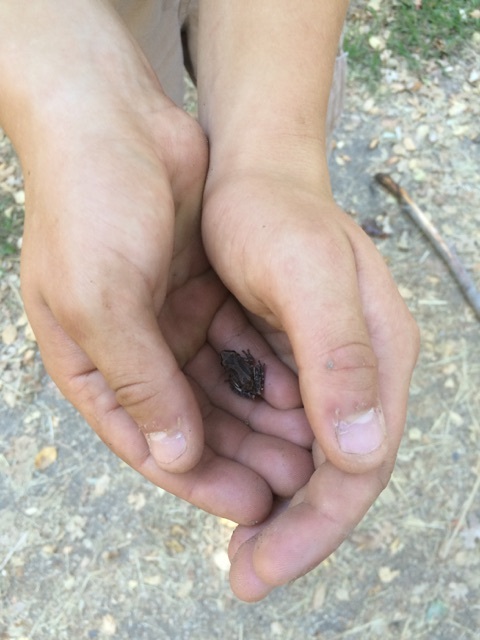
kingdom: Animalia
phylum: Chordata
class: Amphibia
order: Anura
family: Hylidae
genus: Pseudacris
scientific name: Pseudacris regilla
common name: Pacific chorus frog
